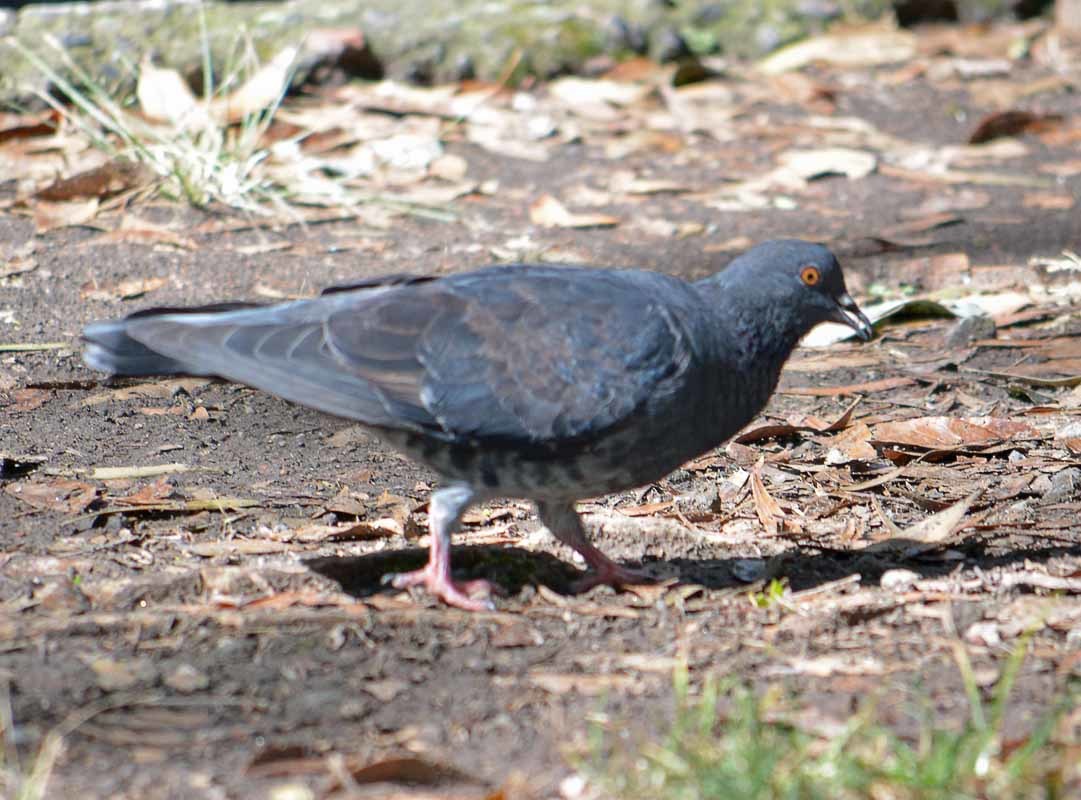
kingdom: Animalia
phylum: Chordata
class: Aves
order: Columbiformes
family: Columbidae
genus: Columba
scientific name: Columba livia
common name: Rock pigeon
